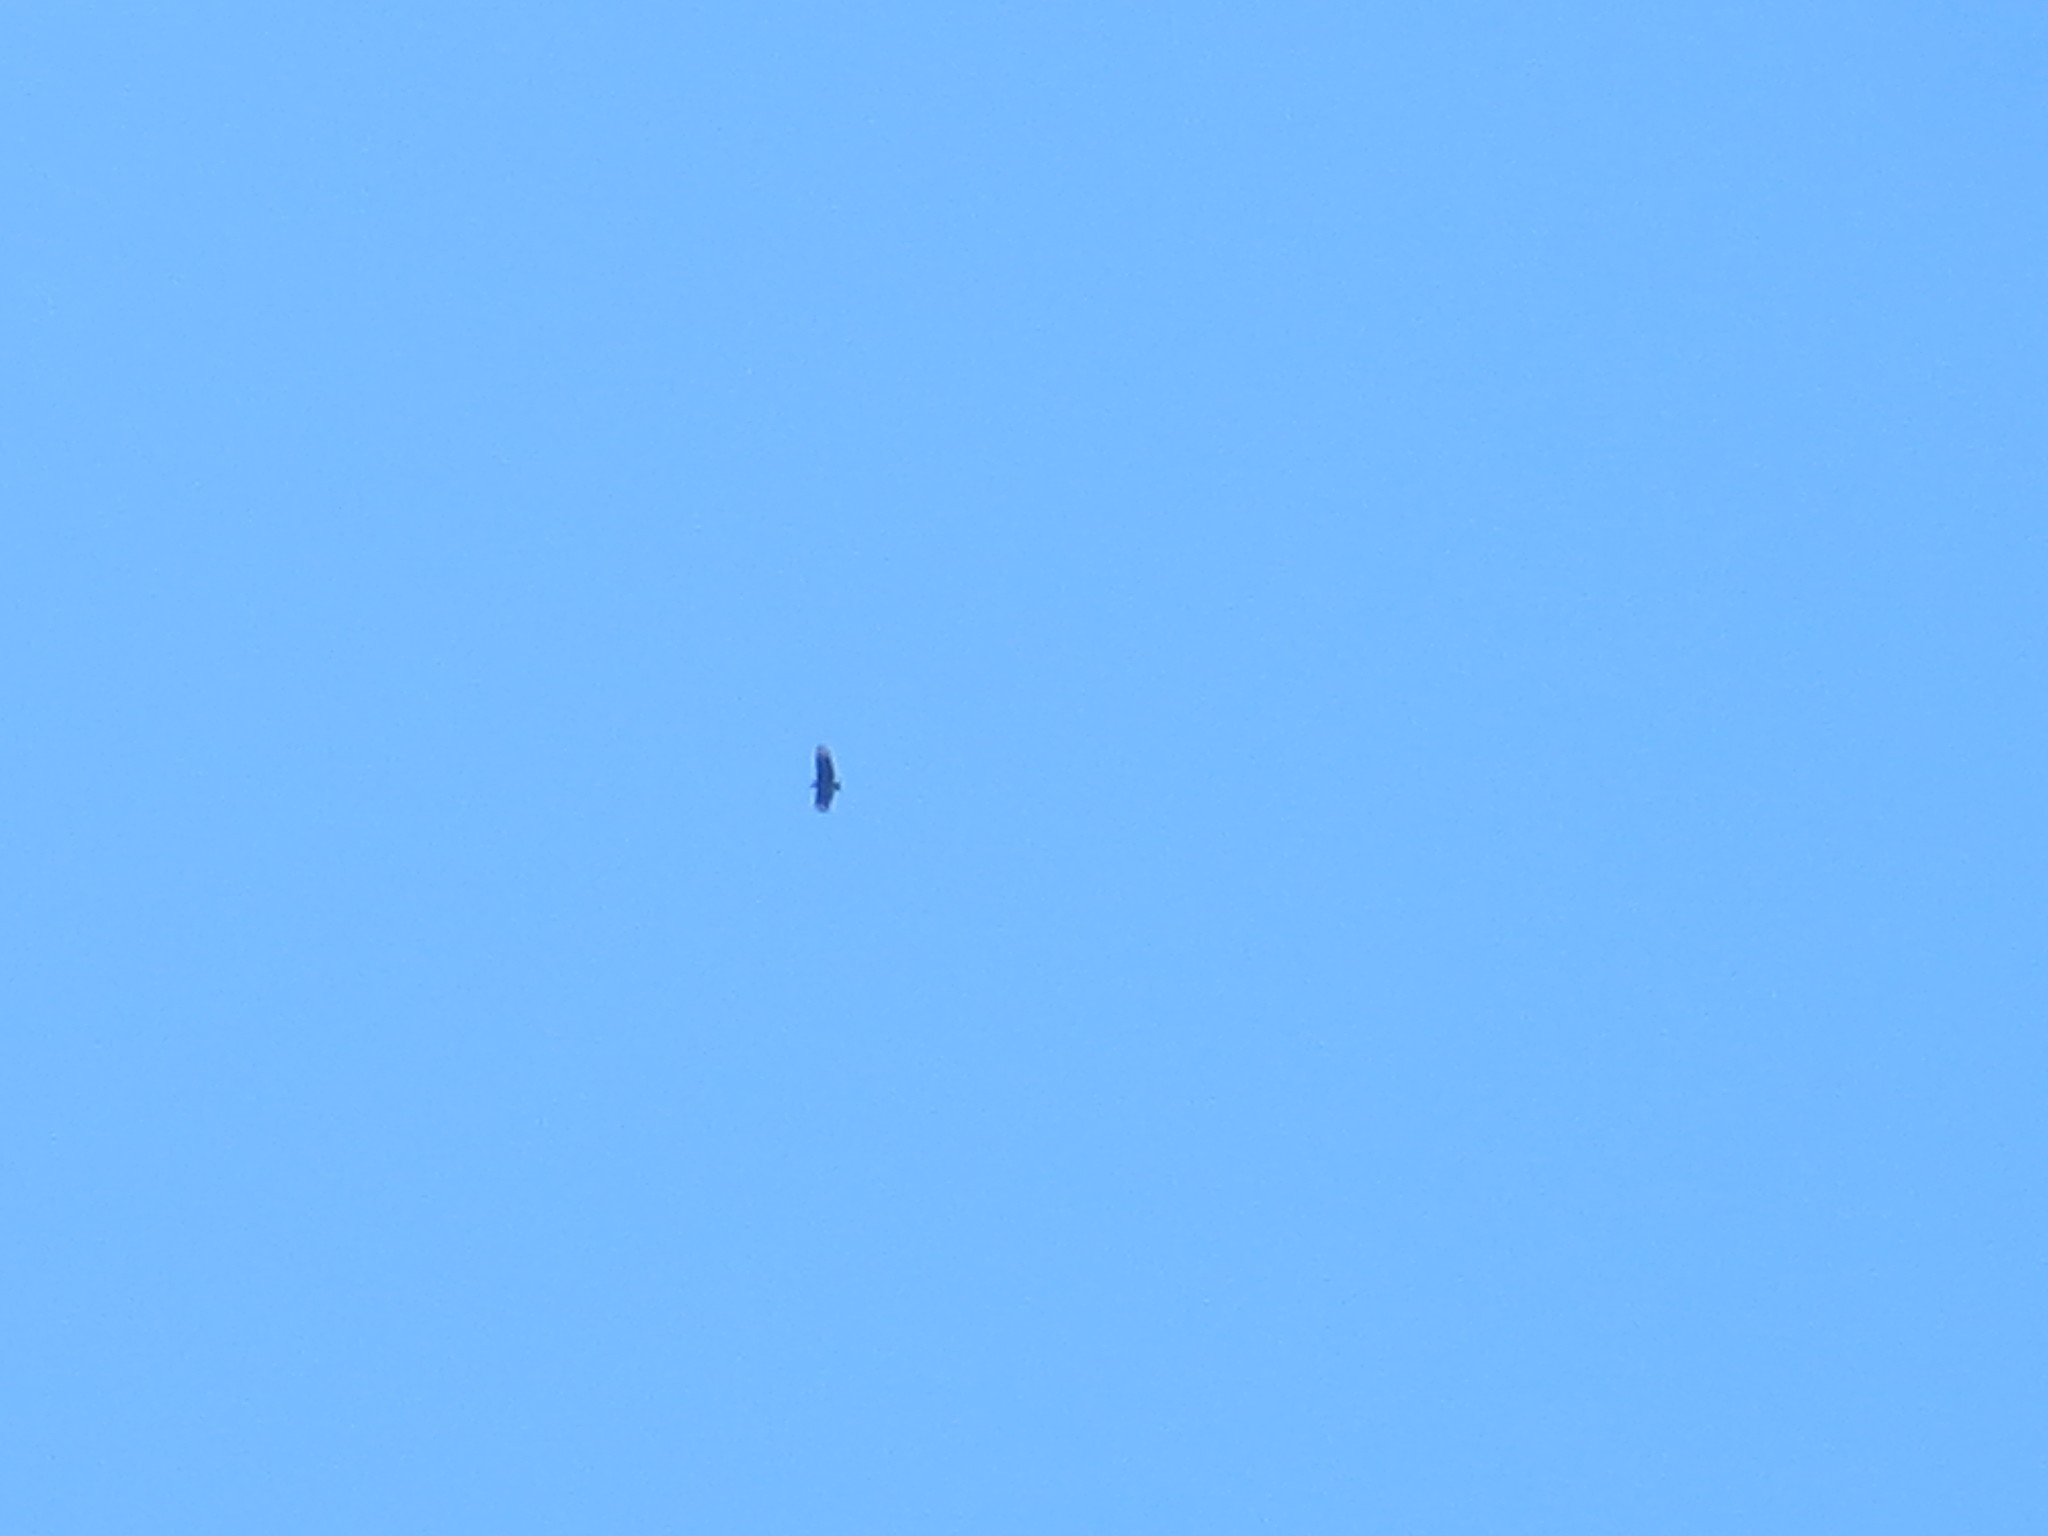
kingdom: Animalia
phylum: Chordata
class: Aves
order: Accipitriformes
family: Cathartidae
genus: Coragyps
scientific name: Coragyps atratus
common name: Black vulture
